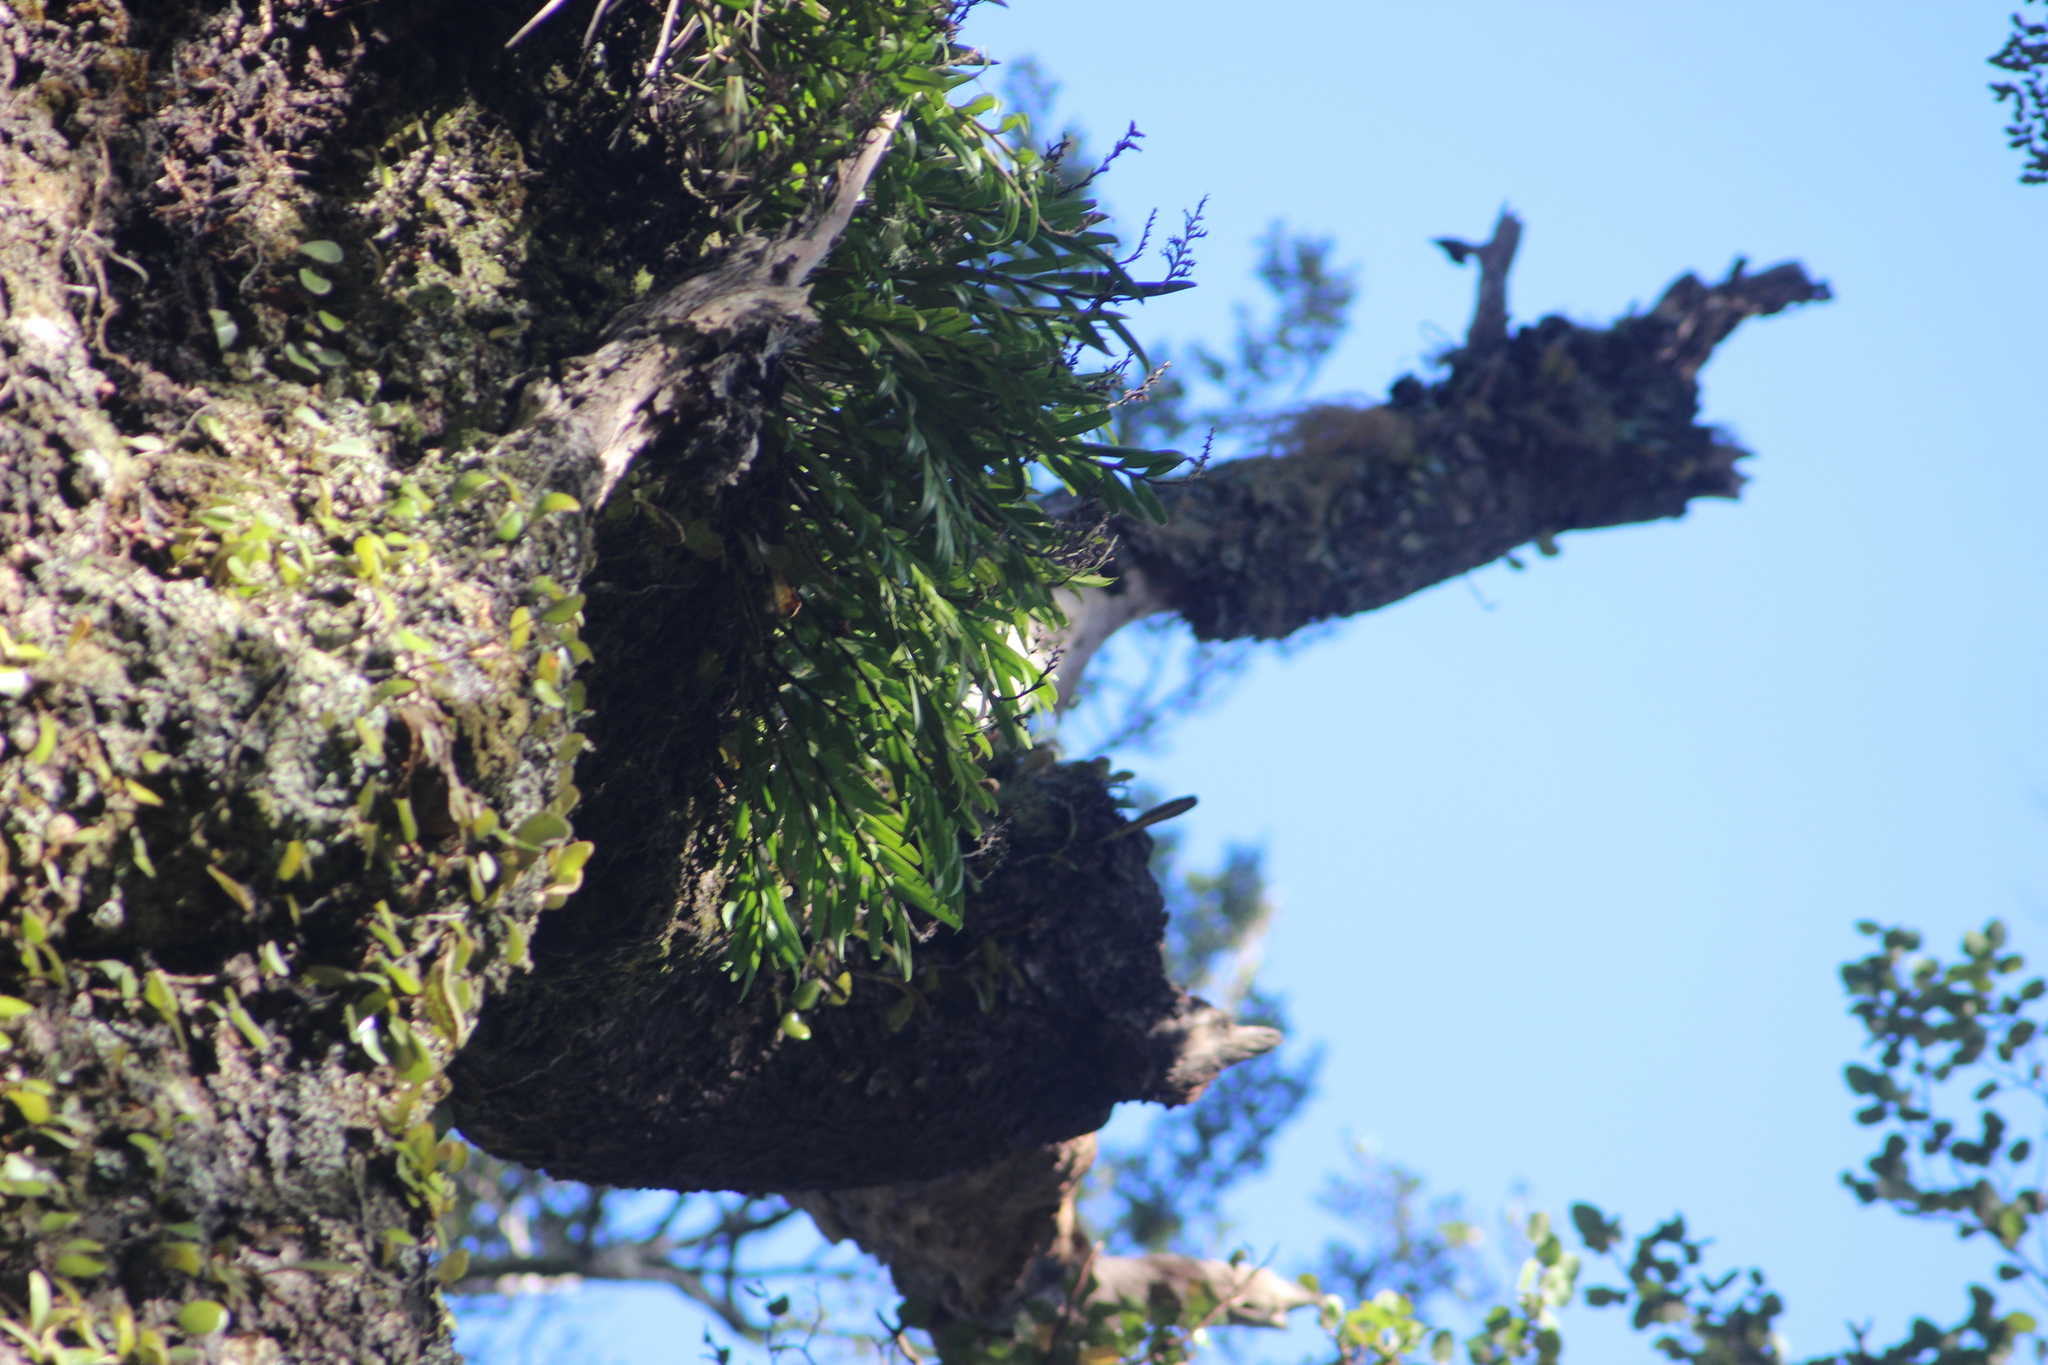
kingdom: Plantae
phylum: Tracheophyta
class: Liliopsida
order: Asparagales
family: Orchidaceae
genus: Earina
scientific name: Earina autumnalis
